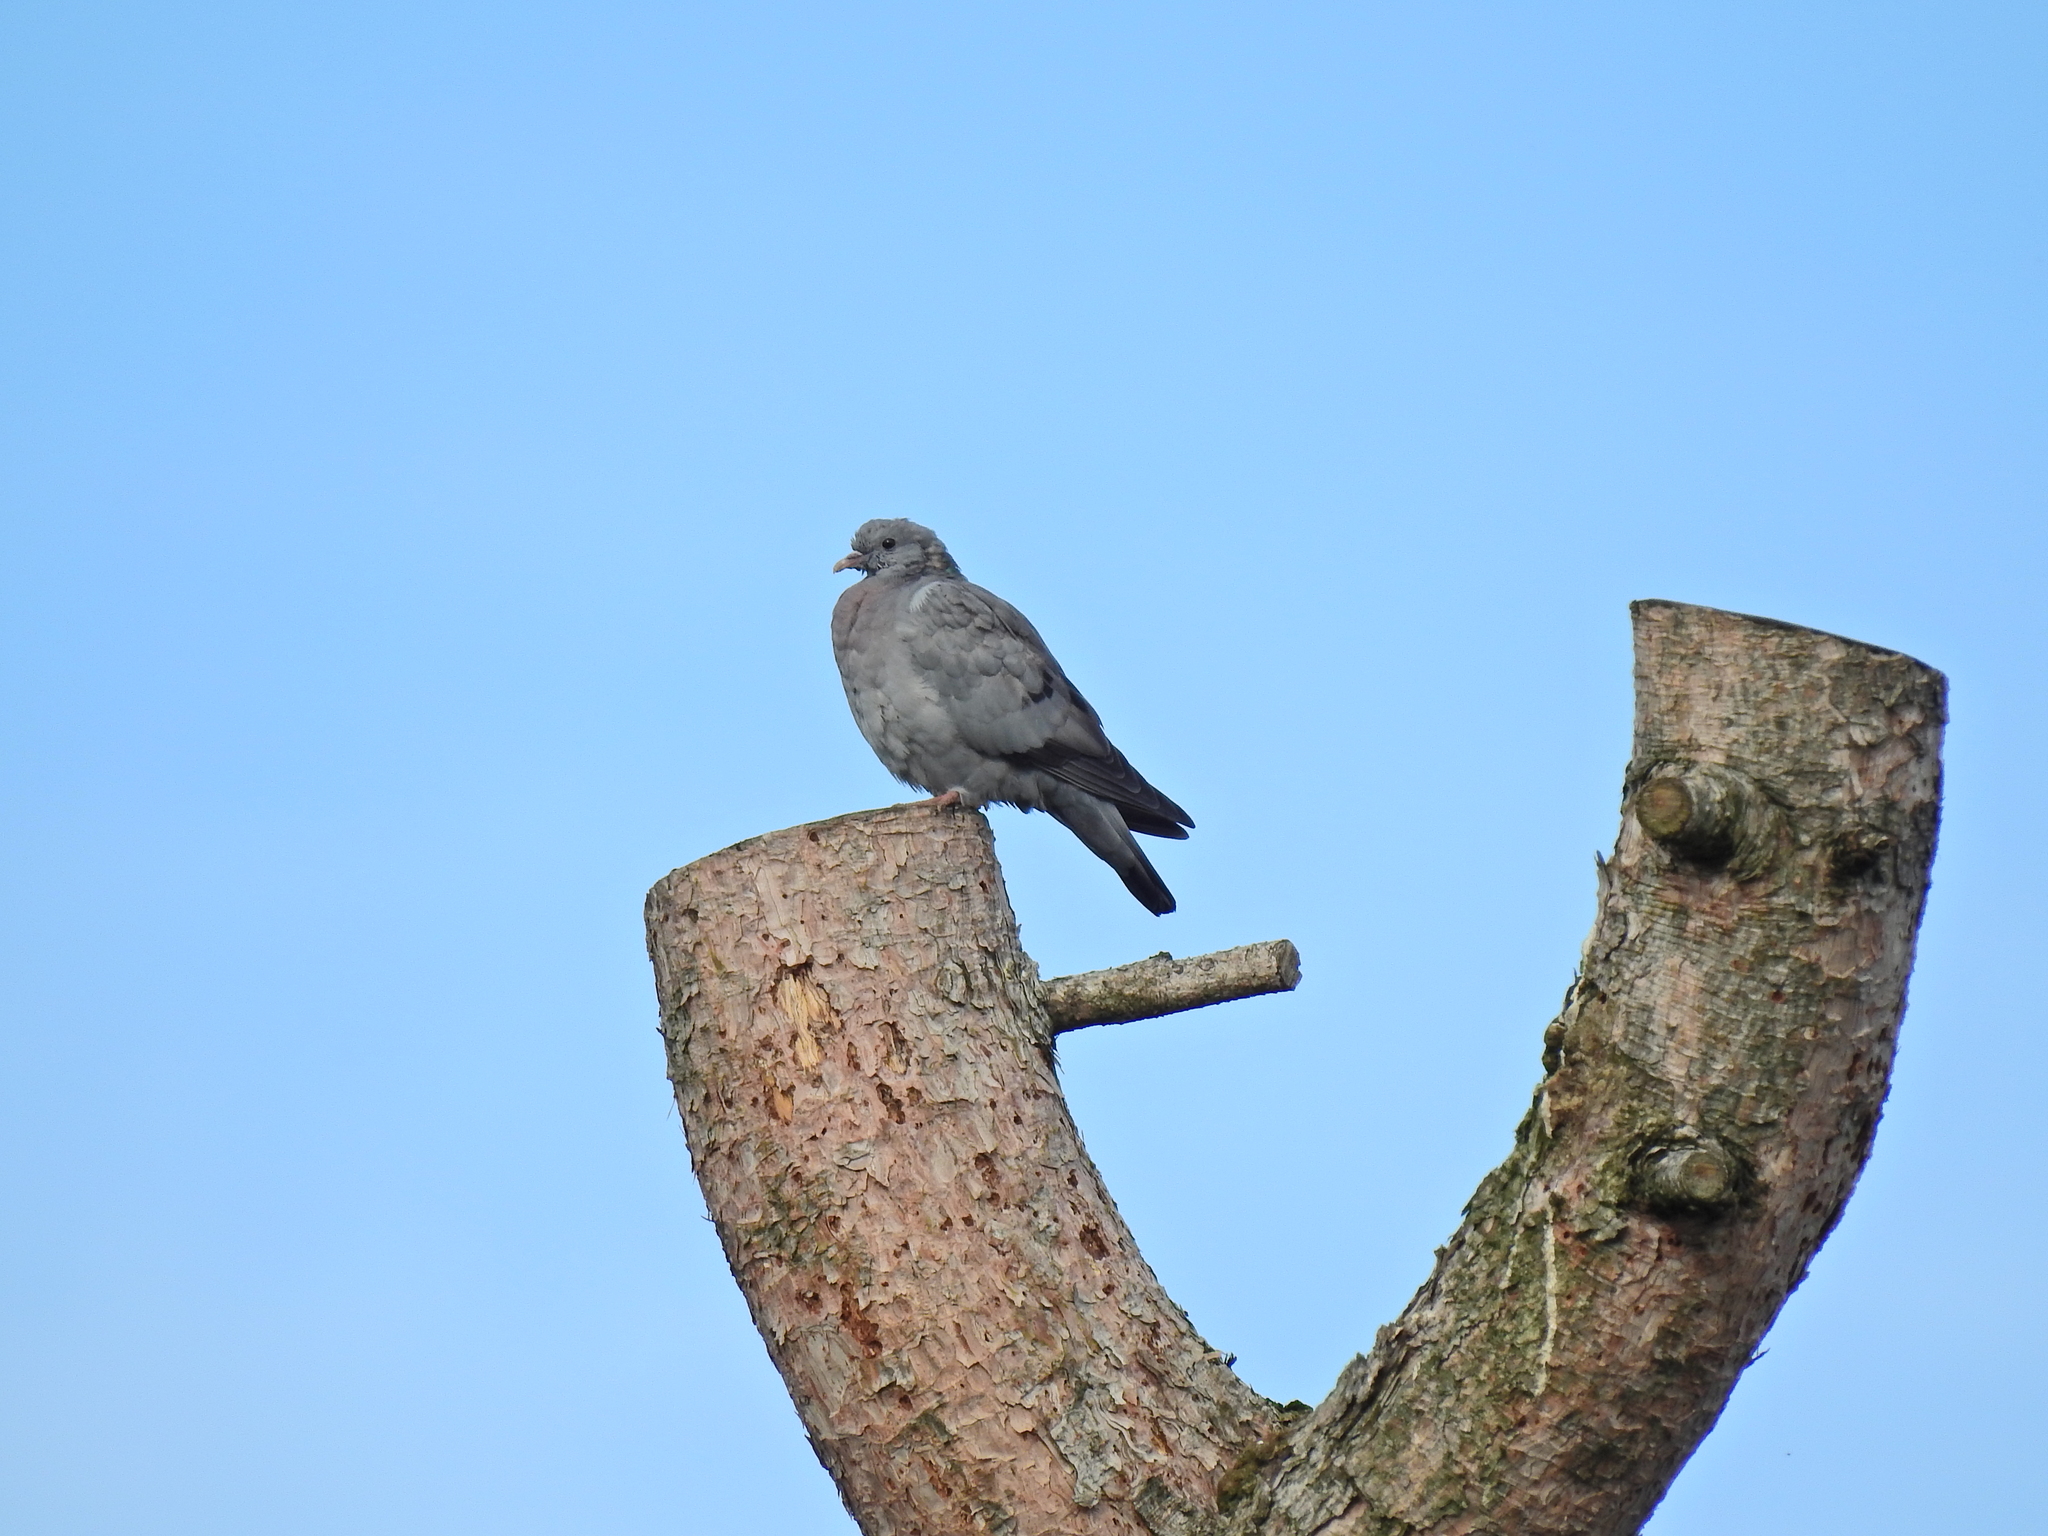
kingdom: Animalia
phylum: Chordata
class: Aves
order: Columbiformes
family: Columbidae
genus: Columba
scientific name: Columba palumbus
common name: Common wood pigeon
